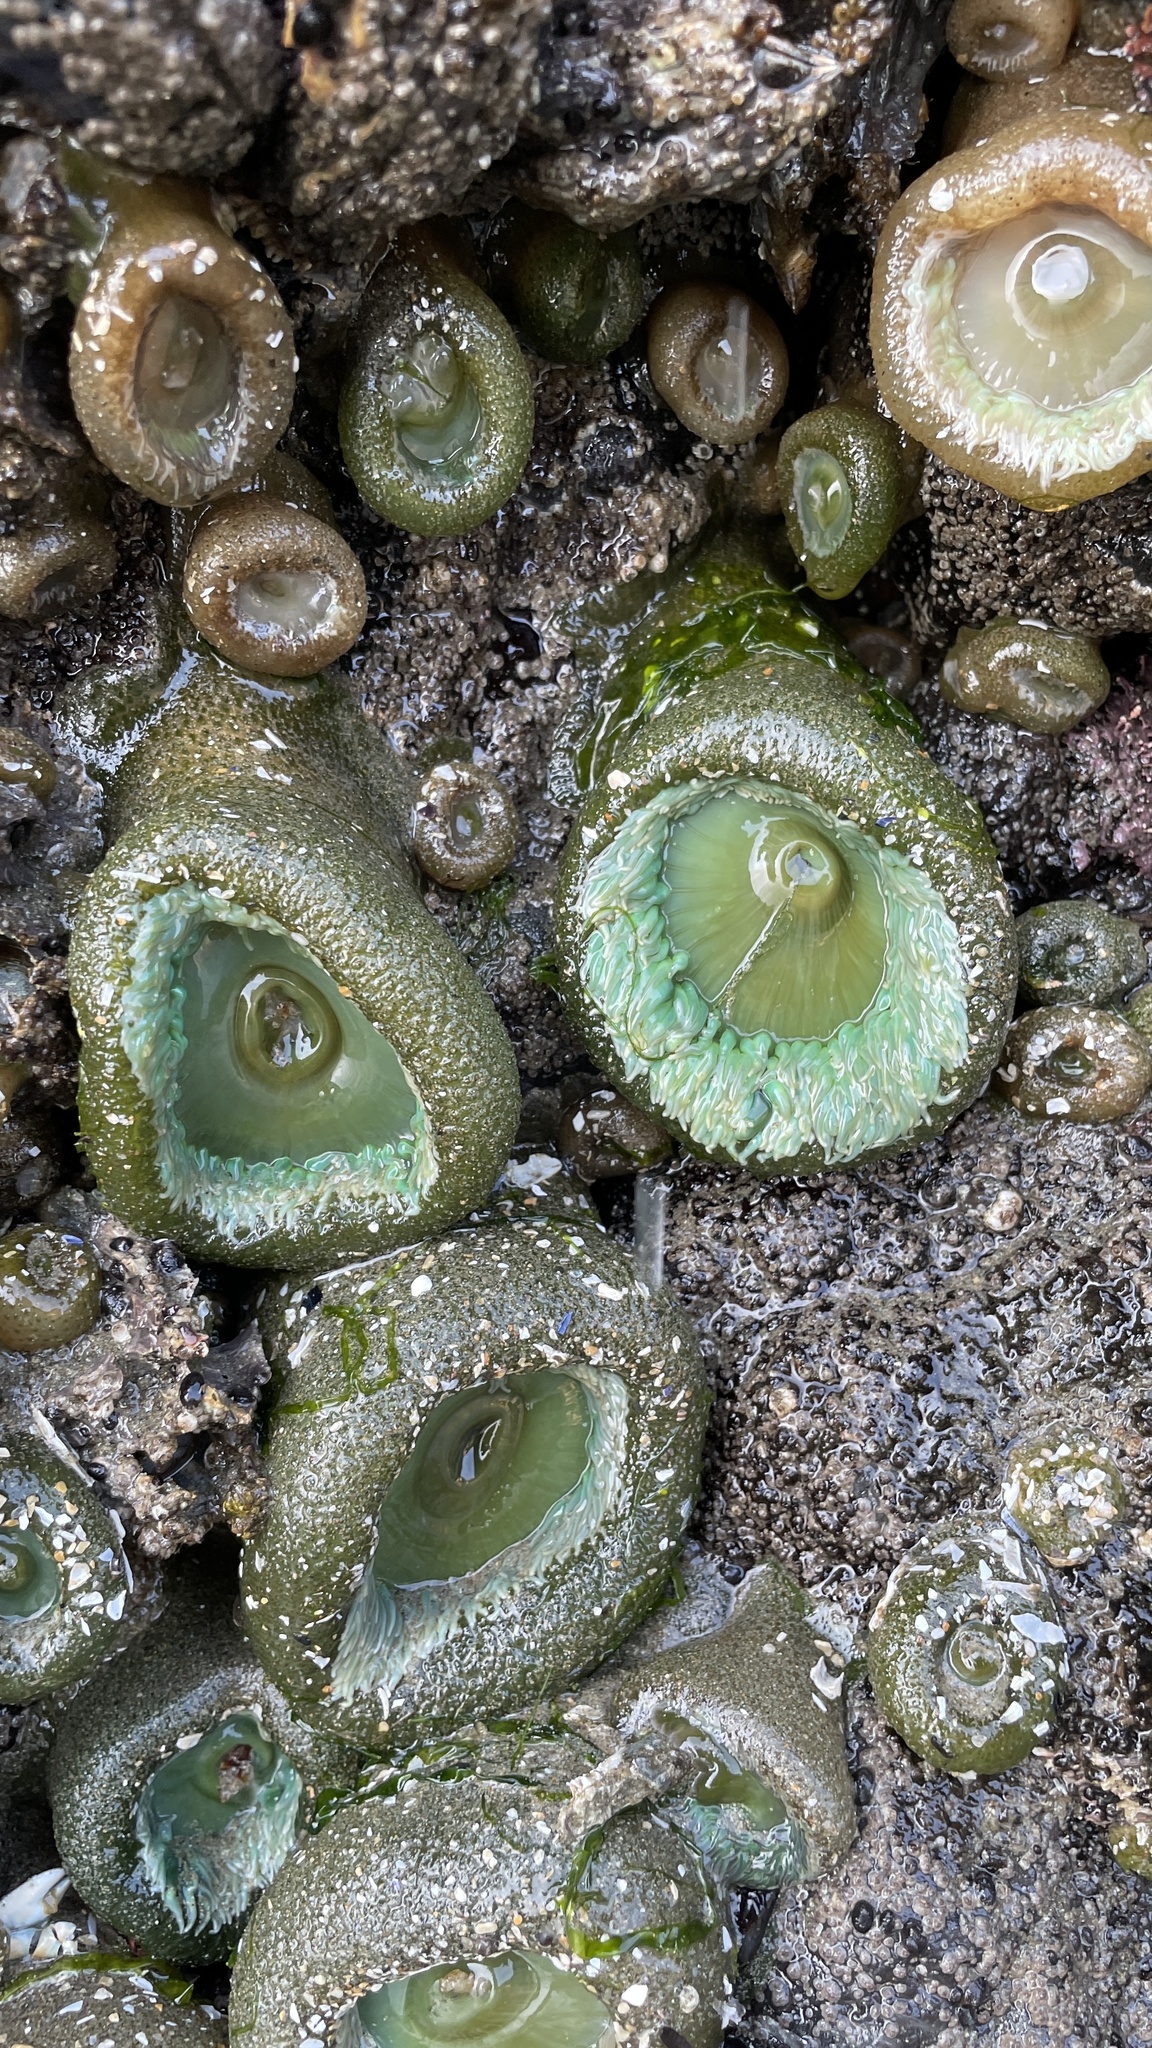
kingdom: Animalia
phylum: Cnidaria
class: Anthozoa
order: Actiniaria
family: Actiniidae
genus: Anthopleura
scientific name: Anthopleura xanthogrammica
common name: Giant green anemone
